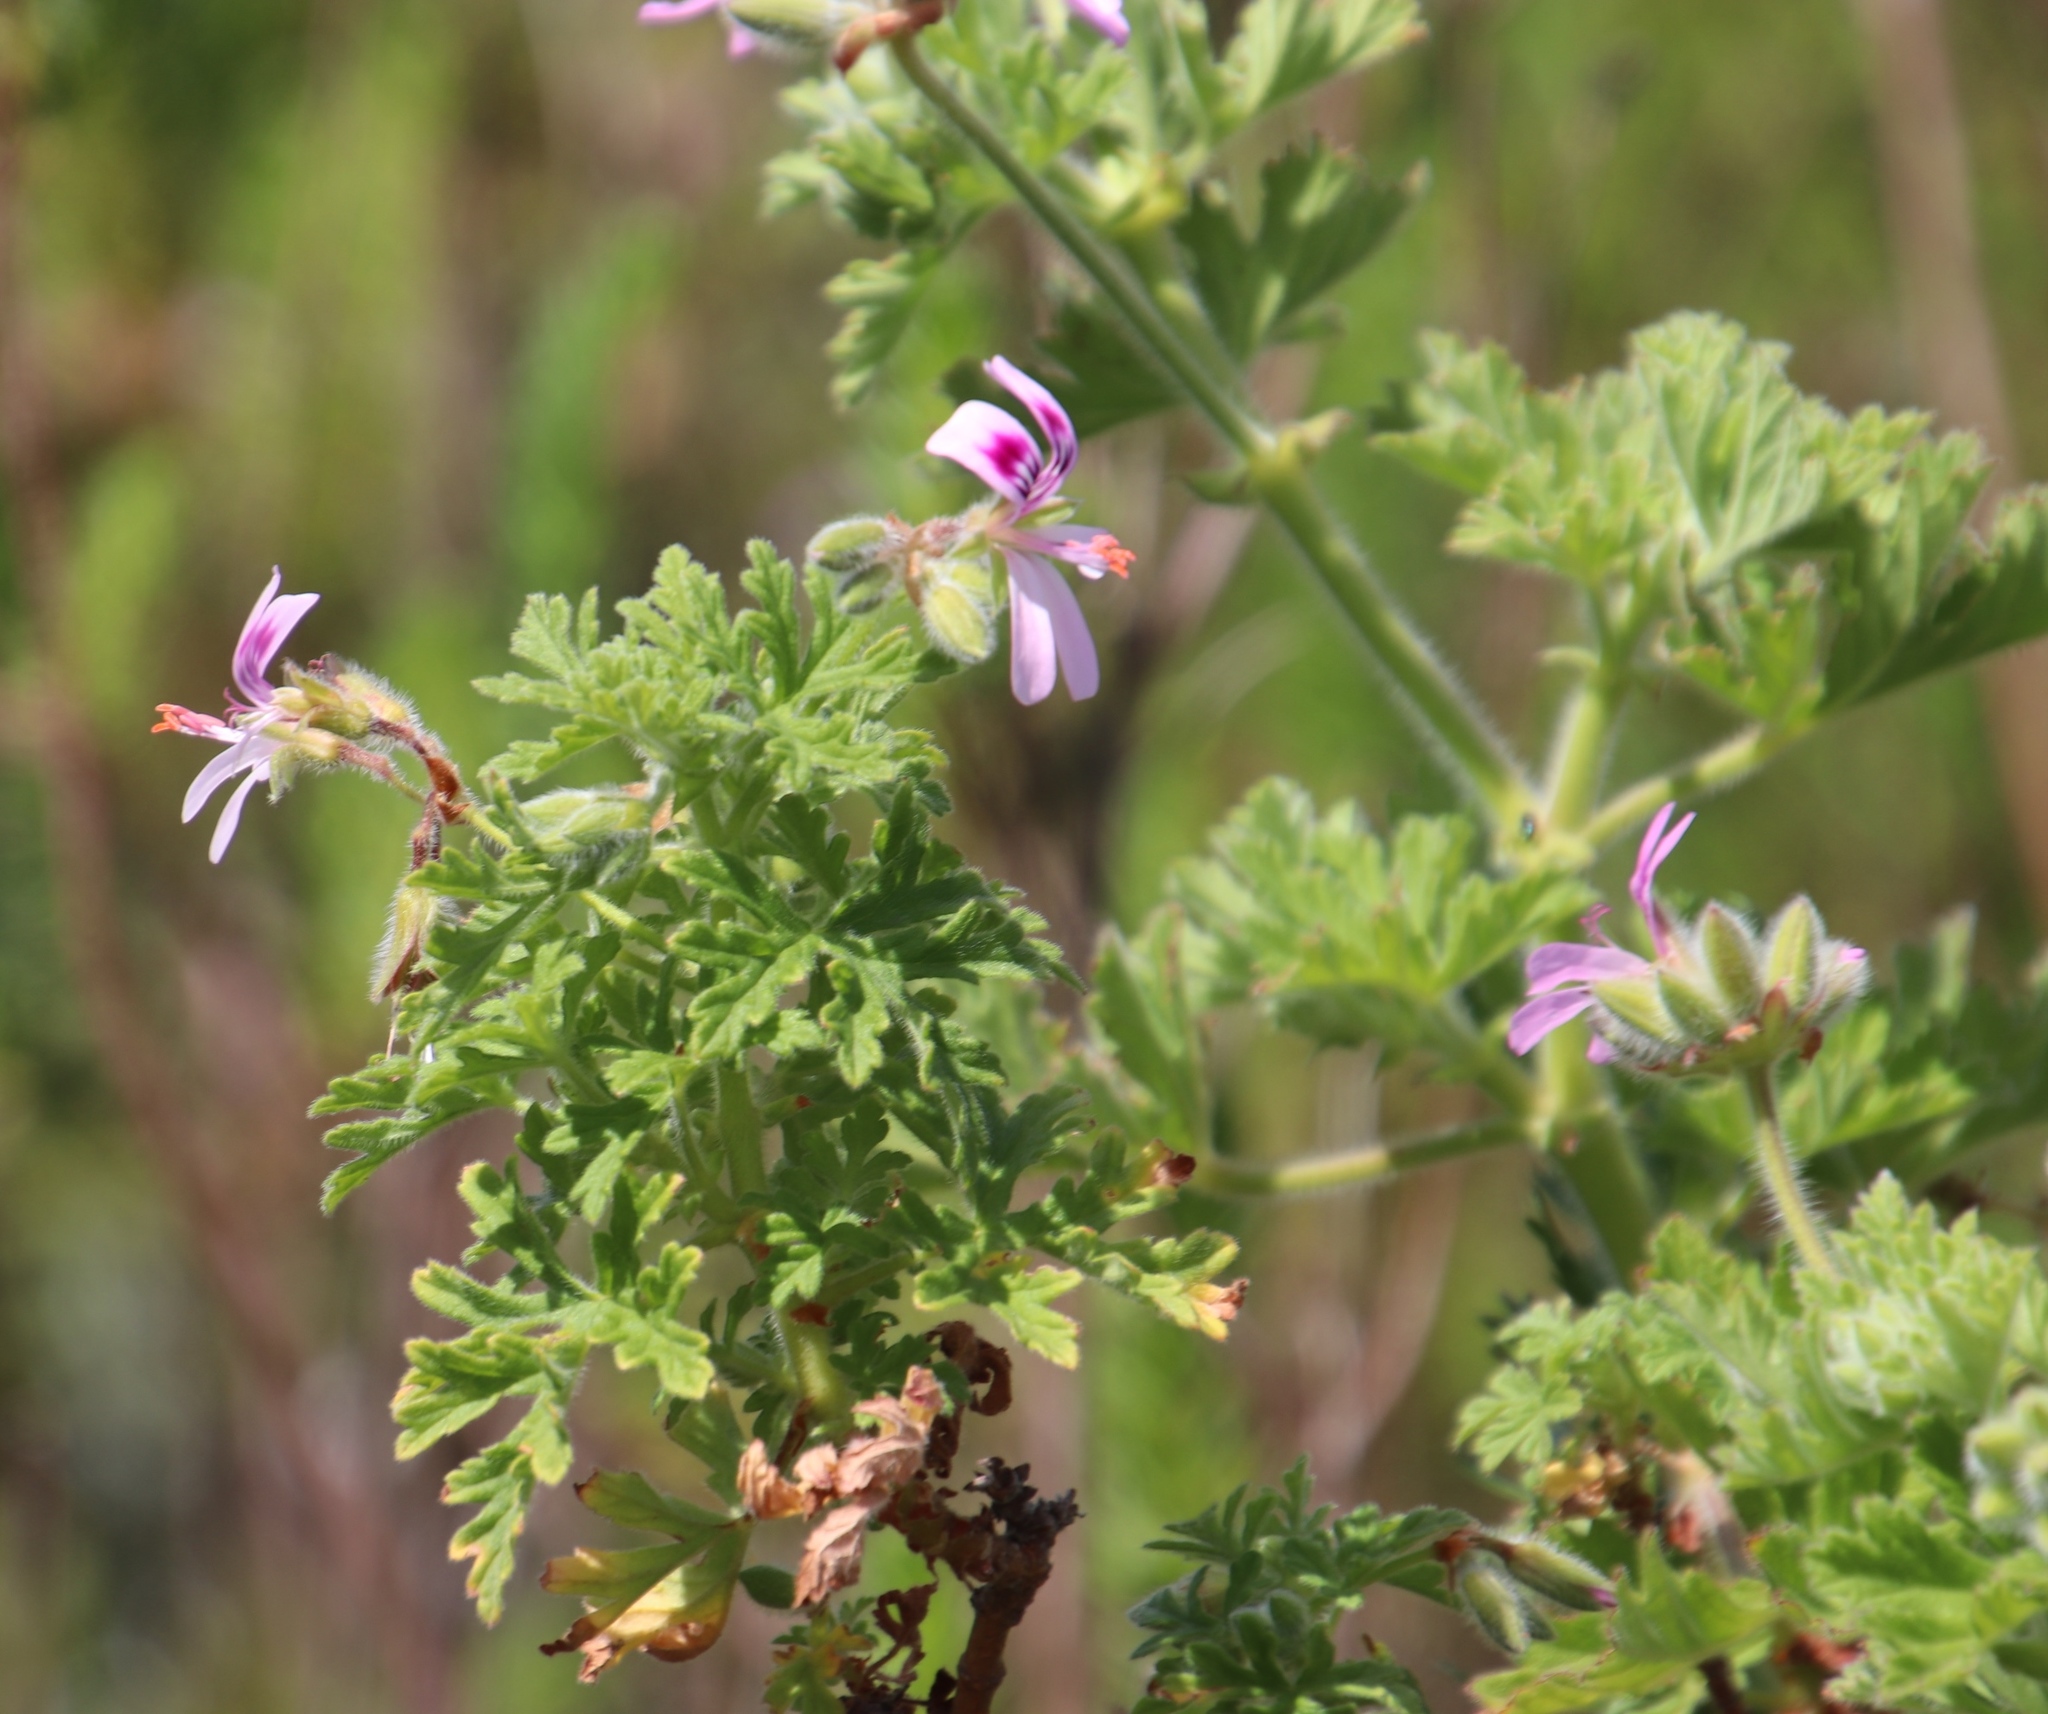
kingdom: Plantae
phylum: Tracheophyta
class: Magnoliopsida
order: Geraniales
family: Geraniaceae
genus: Pelargonium
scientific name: Pelargonium graveolens
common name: Rose-scent geranium
